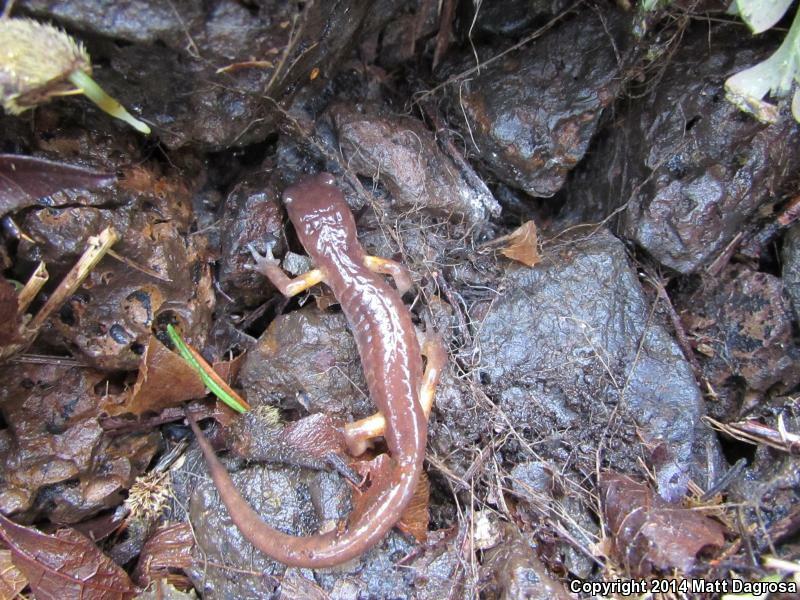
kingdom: Animalia
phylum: Chordata
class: Amphibia
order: Caudata
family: Plethodontidae
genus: Ensatina
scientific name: Ensatina eschscholtzii
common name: Ensatina
